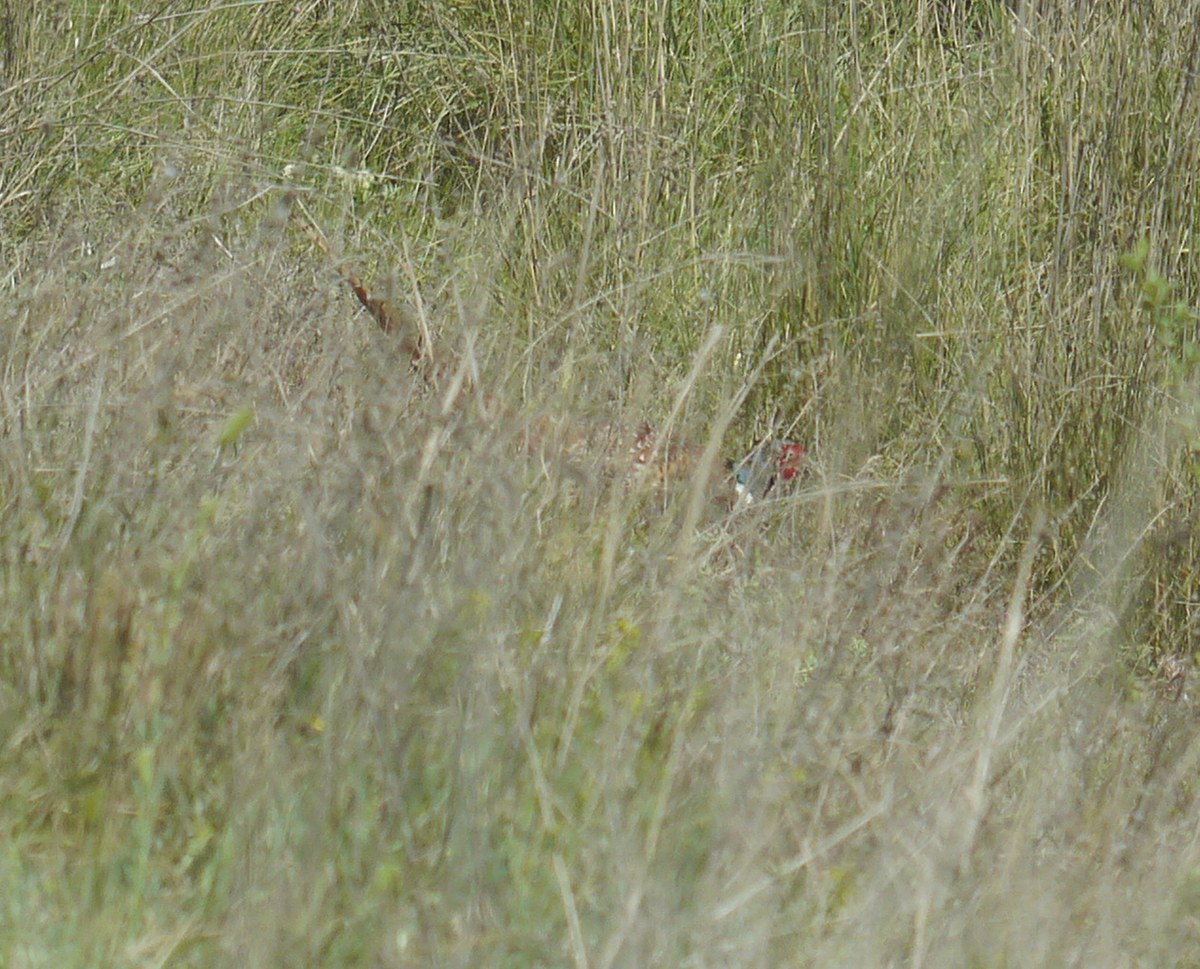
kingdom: Animalia
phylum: Chordata
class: Aves
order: Galliformes
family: Phasianidae
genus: Phasianus
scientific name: Phasianus colchicus
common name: Common pheasant
